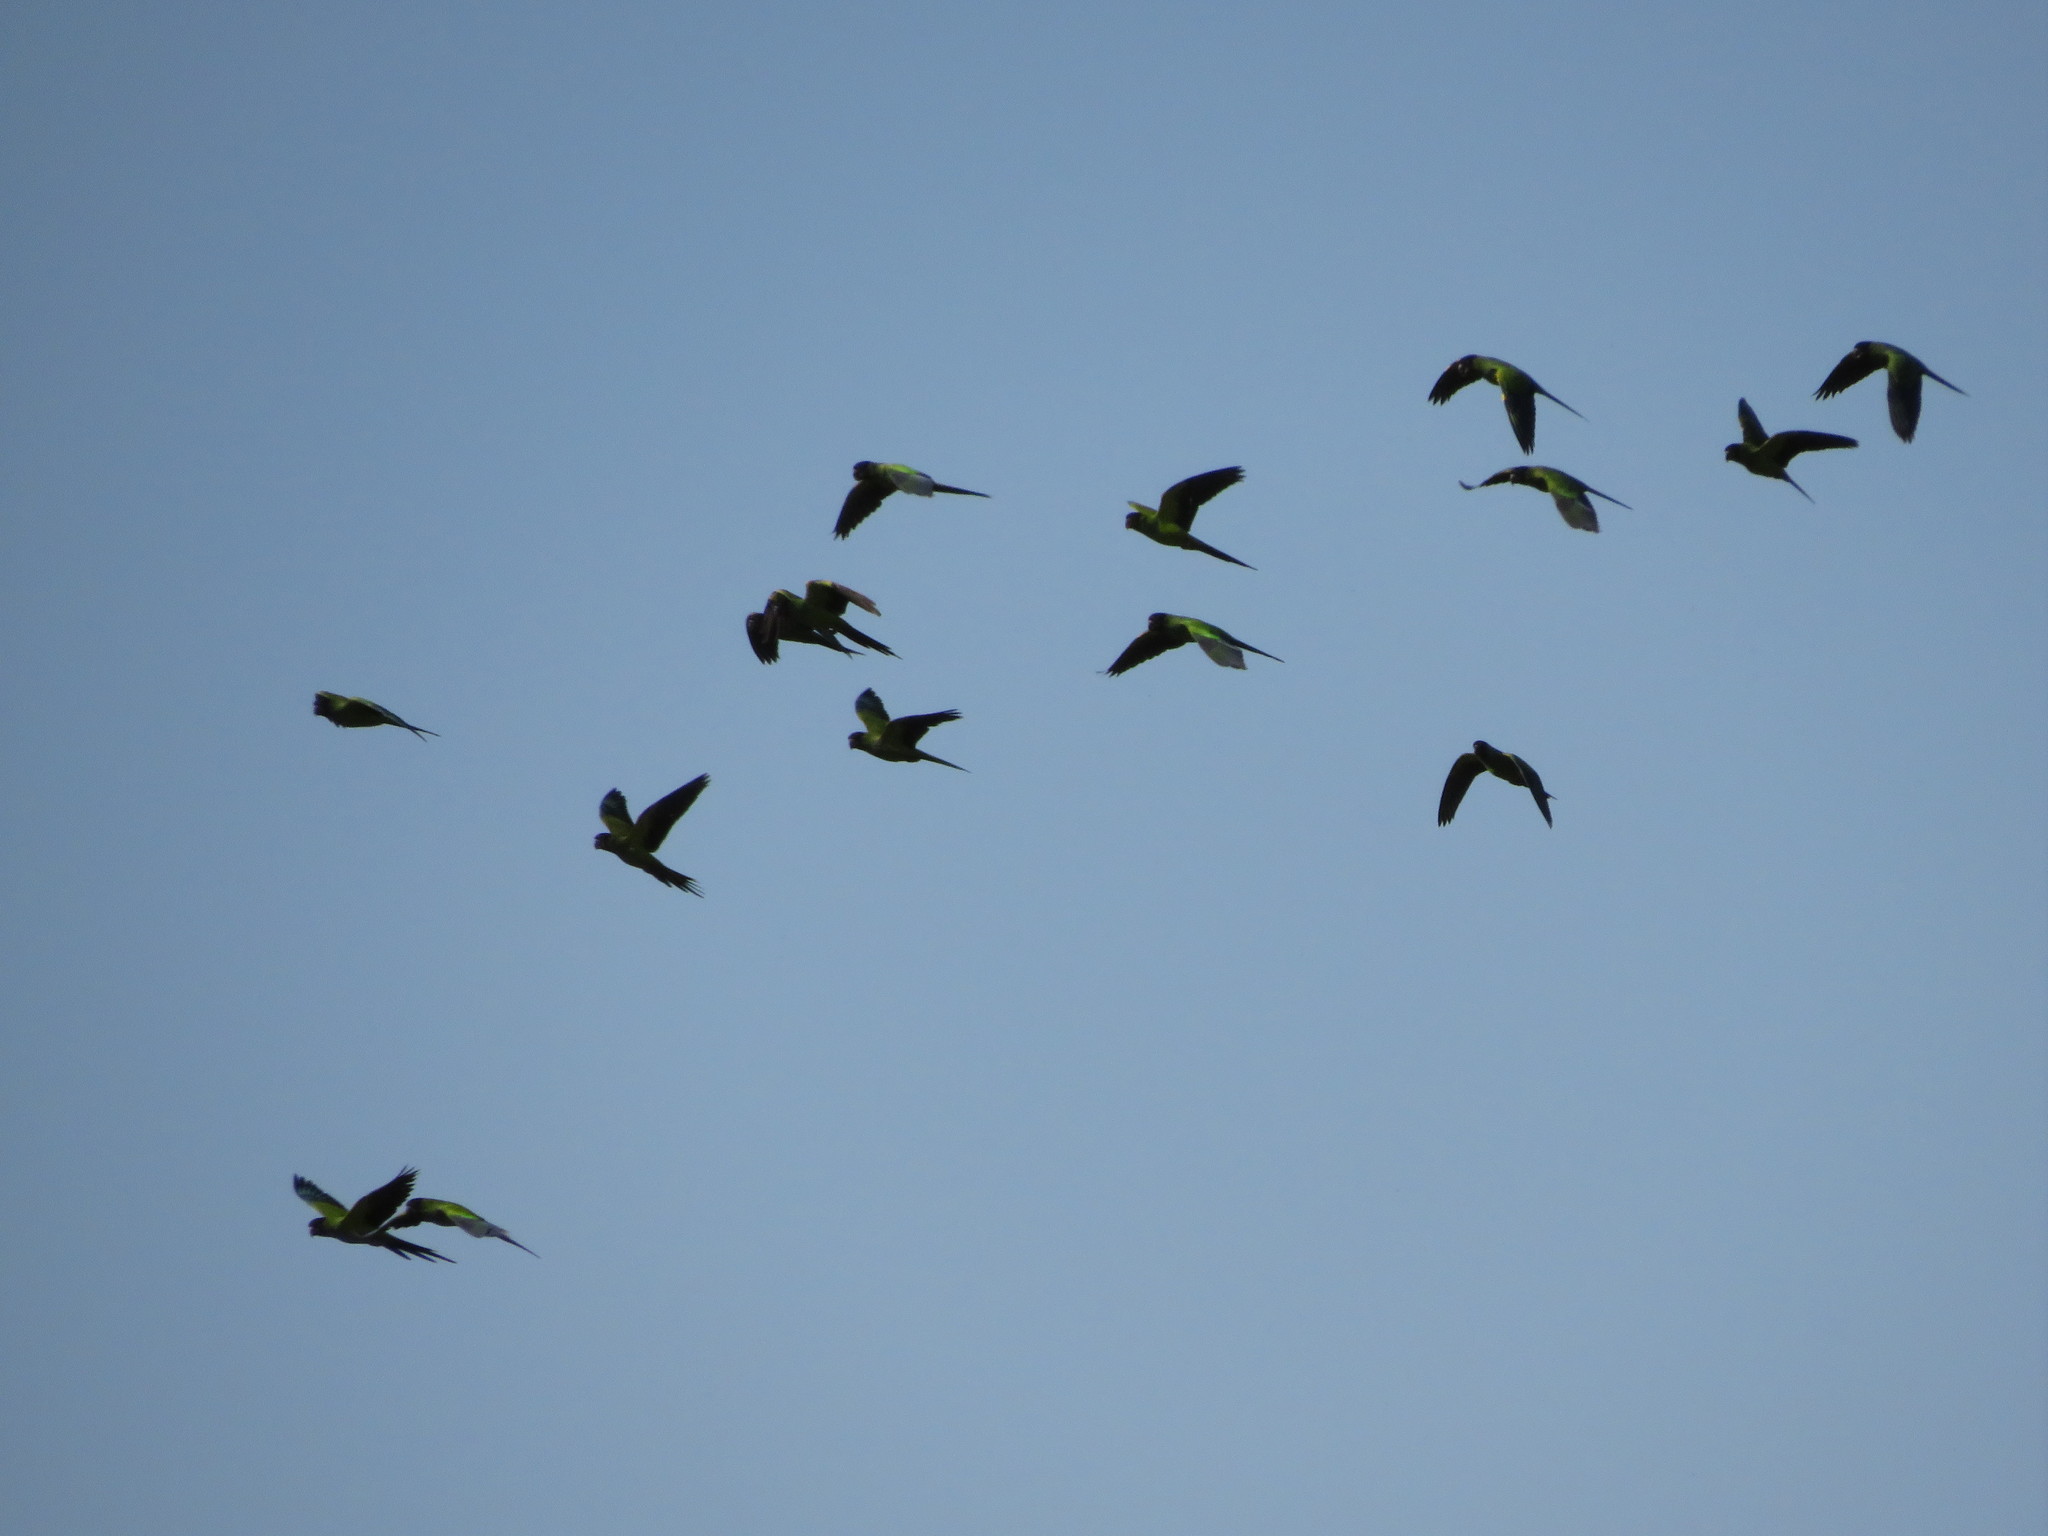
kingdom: Animalia
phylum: Chordata
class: Aves
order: Psittaciformes
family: Psittacidae
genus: Nandayus
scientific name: Nandayus nenday
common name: Nanday parakeet
